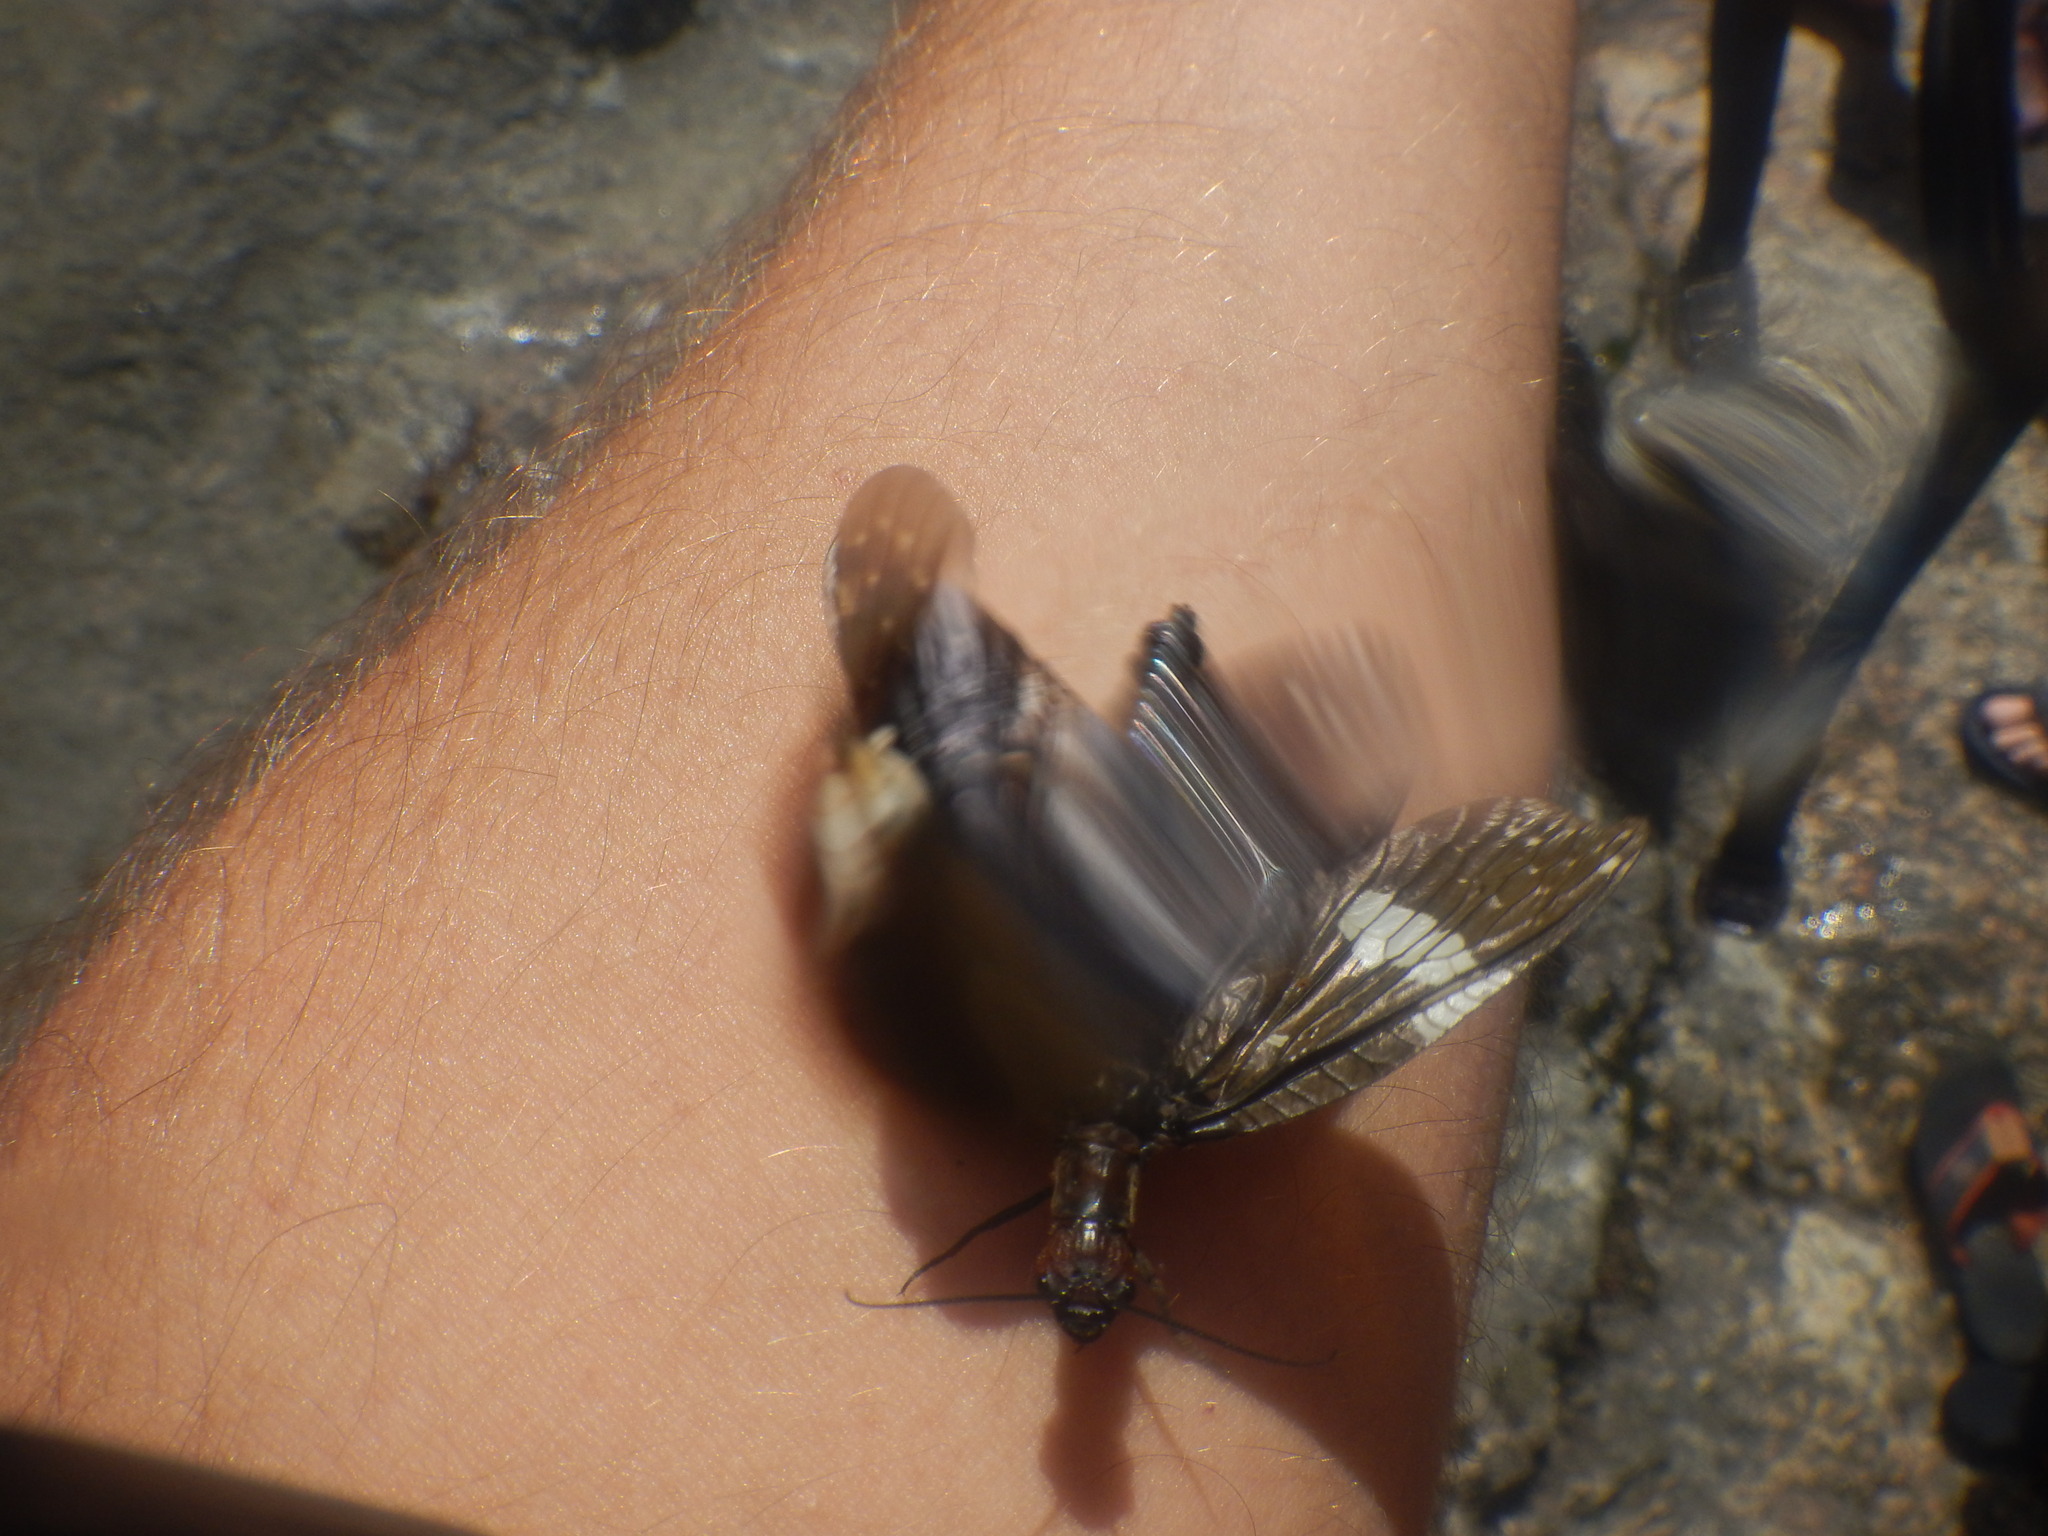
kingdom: Animalia
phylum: Arthropoda
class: Insecta
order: Megaloptera
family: Corydalidae
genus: Nigronia
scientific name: Nigronia serricornis
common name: Serrate dark fishfly
